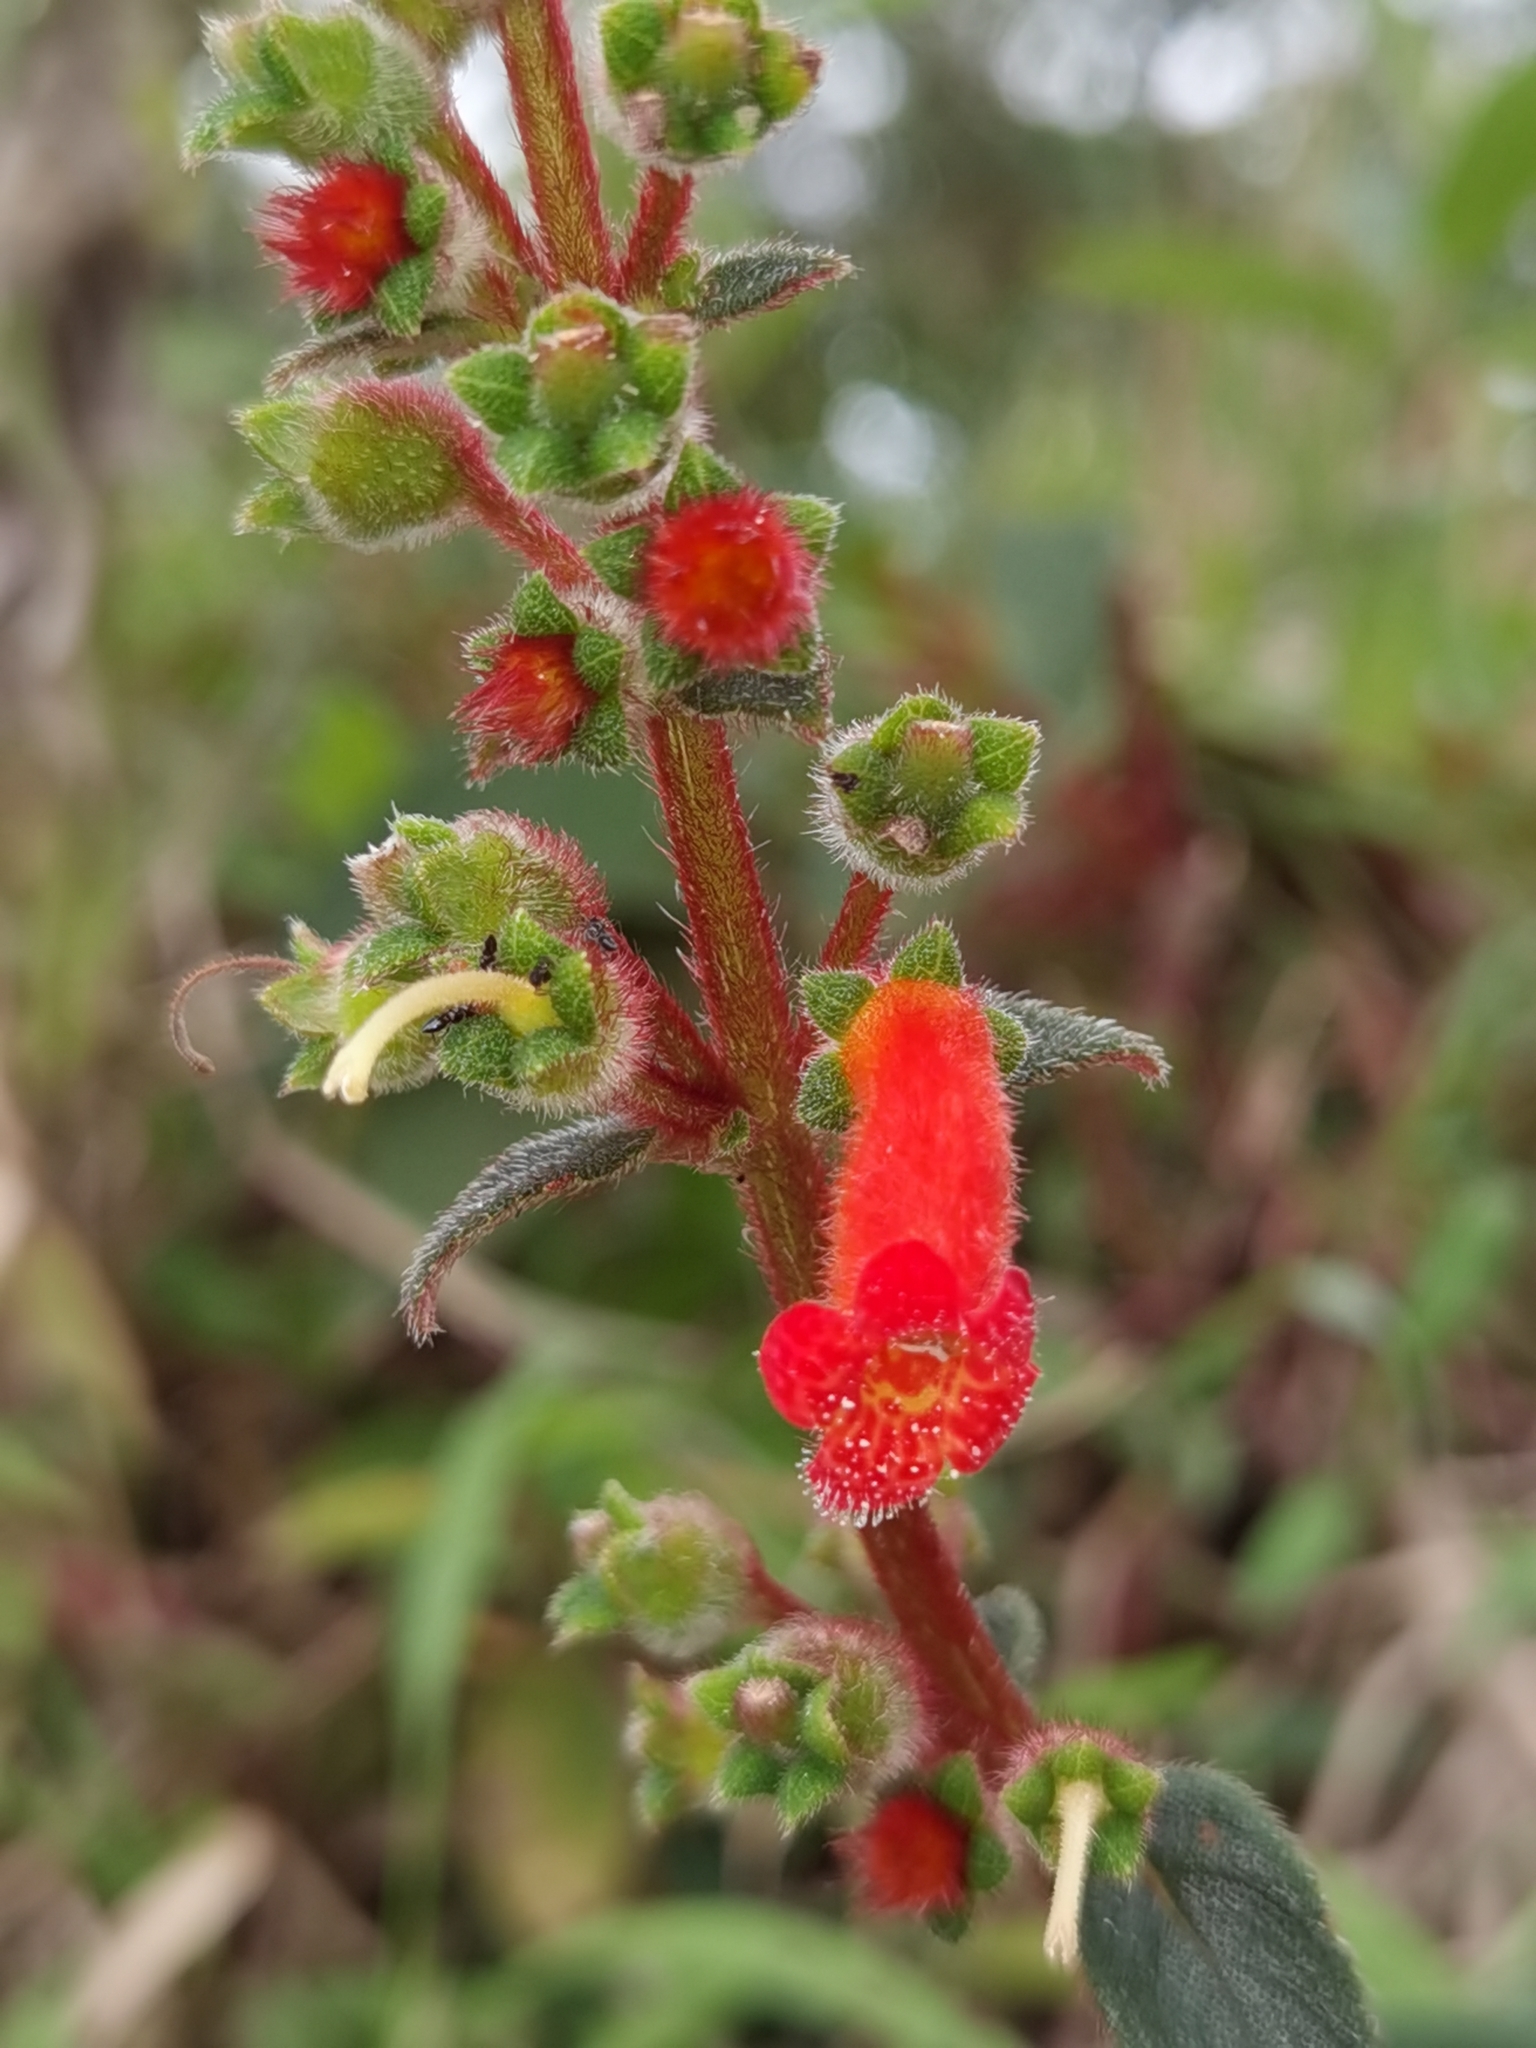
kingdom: Plantae
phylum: Tracheophyta
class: Magnoliopsida
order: Lamiales
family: Gesneriaceae
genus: Kohleria
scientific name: Kohleria spicata
